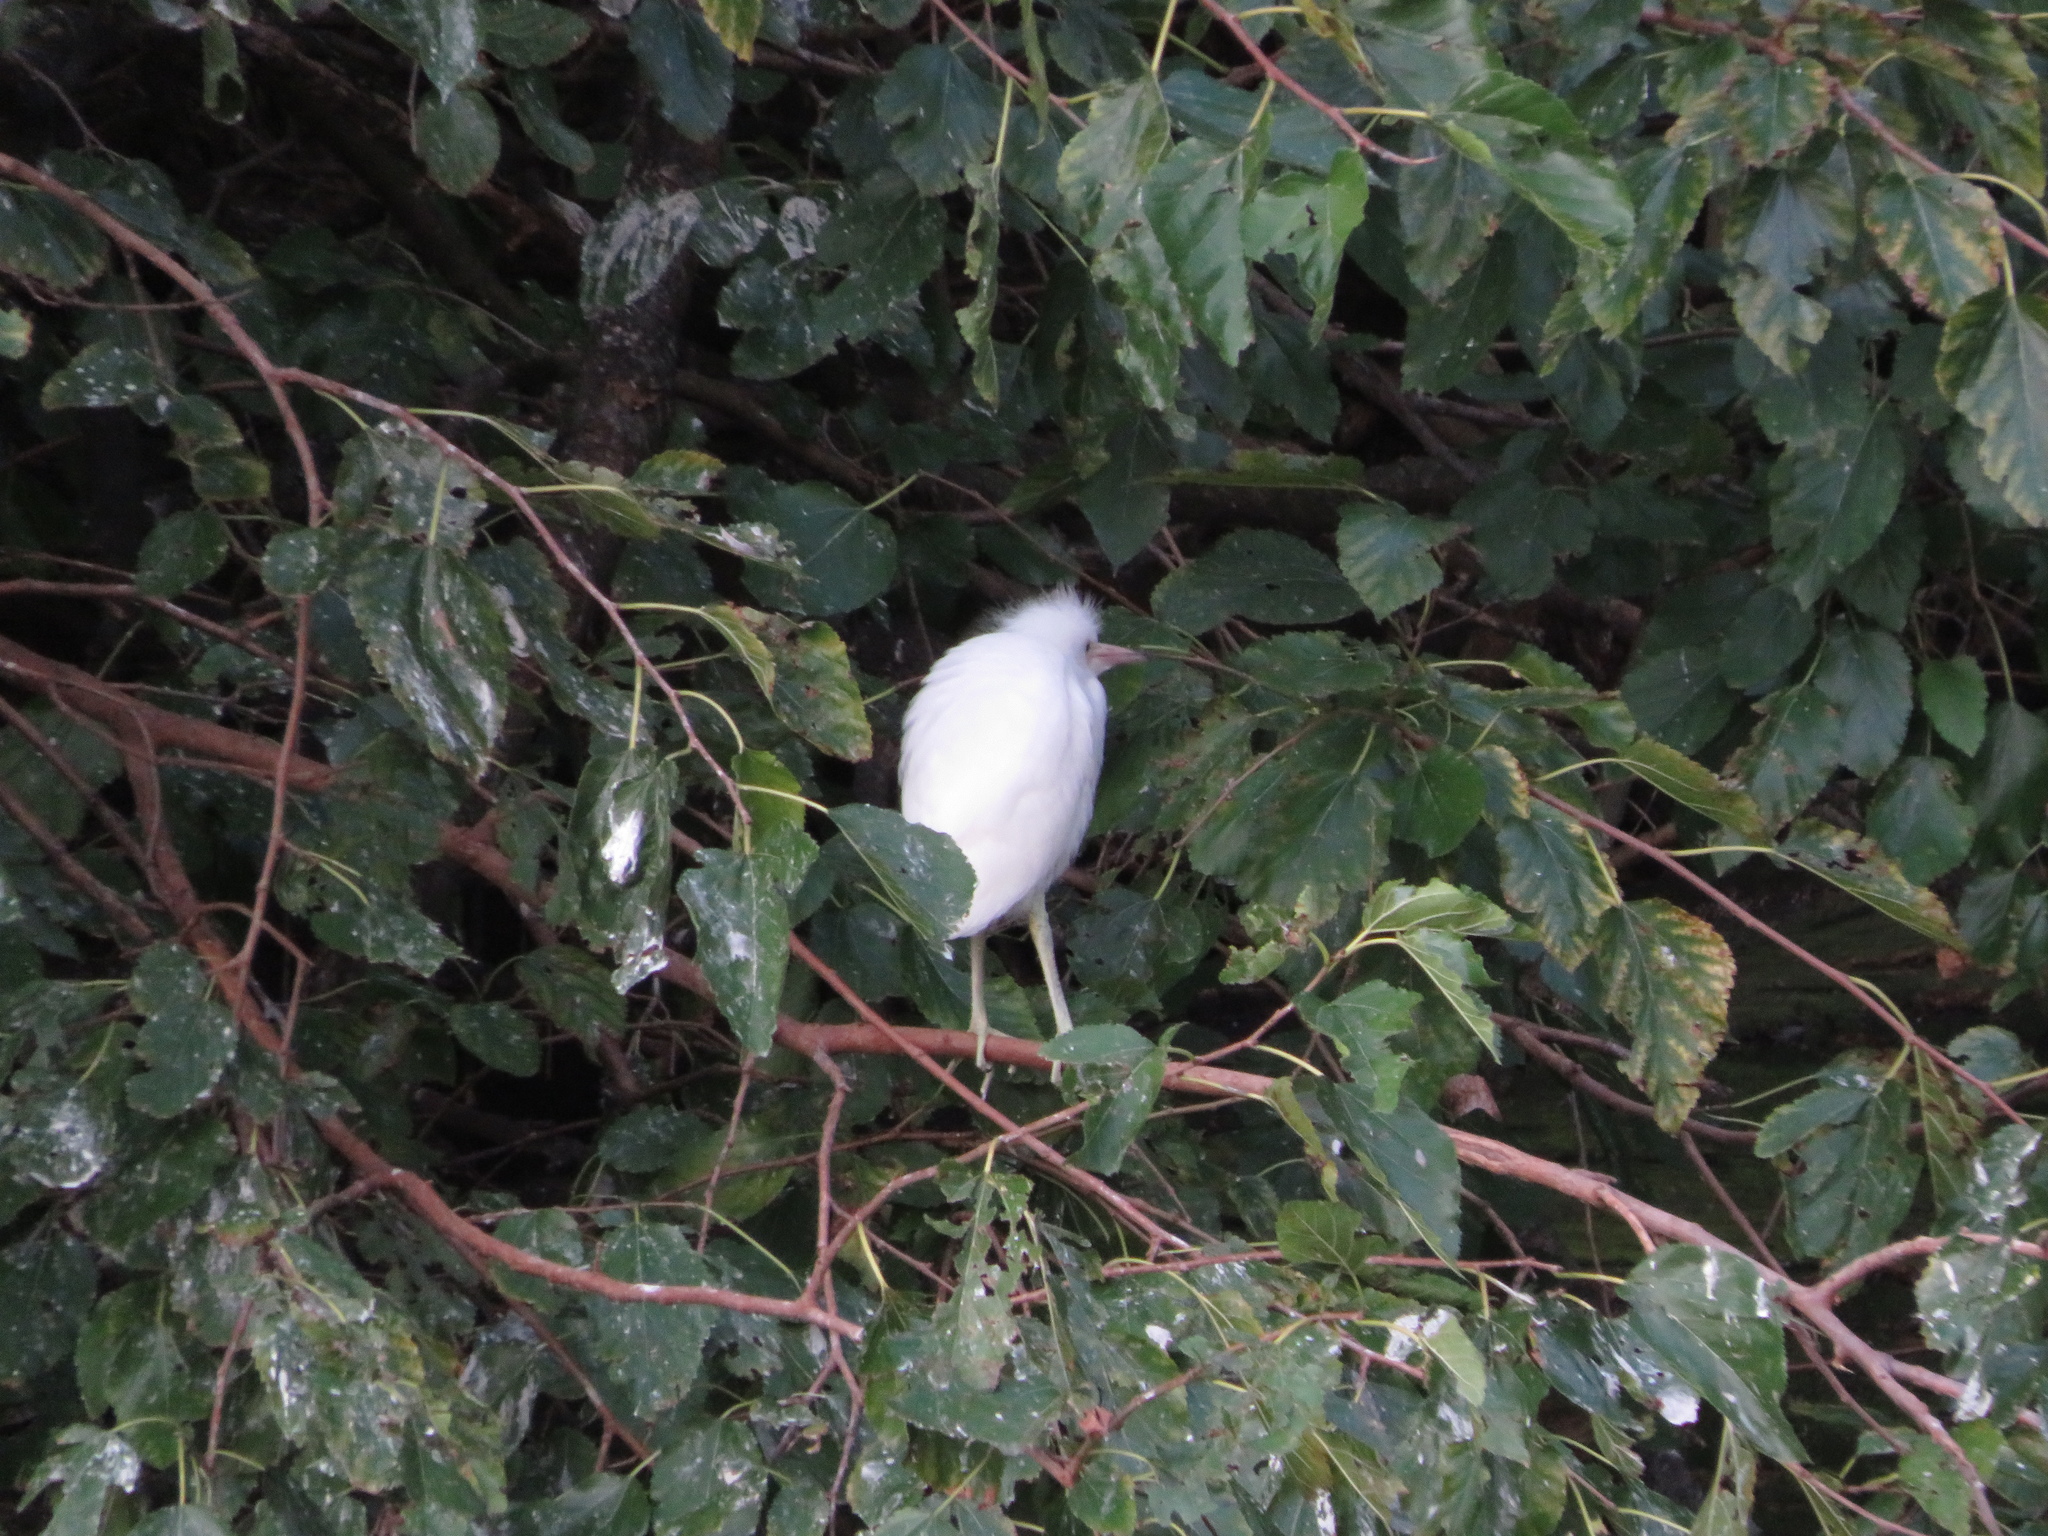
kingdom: Animalia
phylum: Chordata
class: Aves
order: Pelecaniformes
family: Ardeidae
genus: Egretta
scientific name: Egretta thula
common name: Snowy egret
